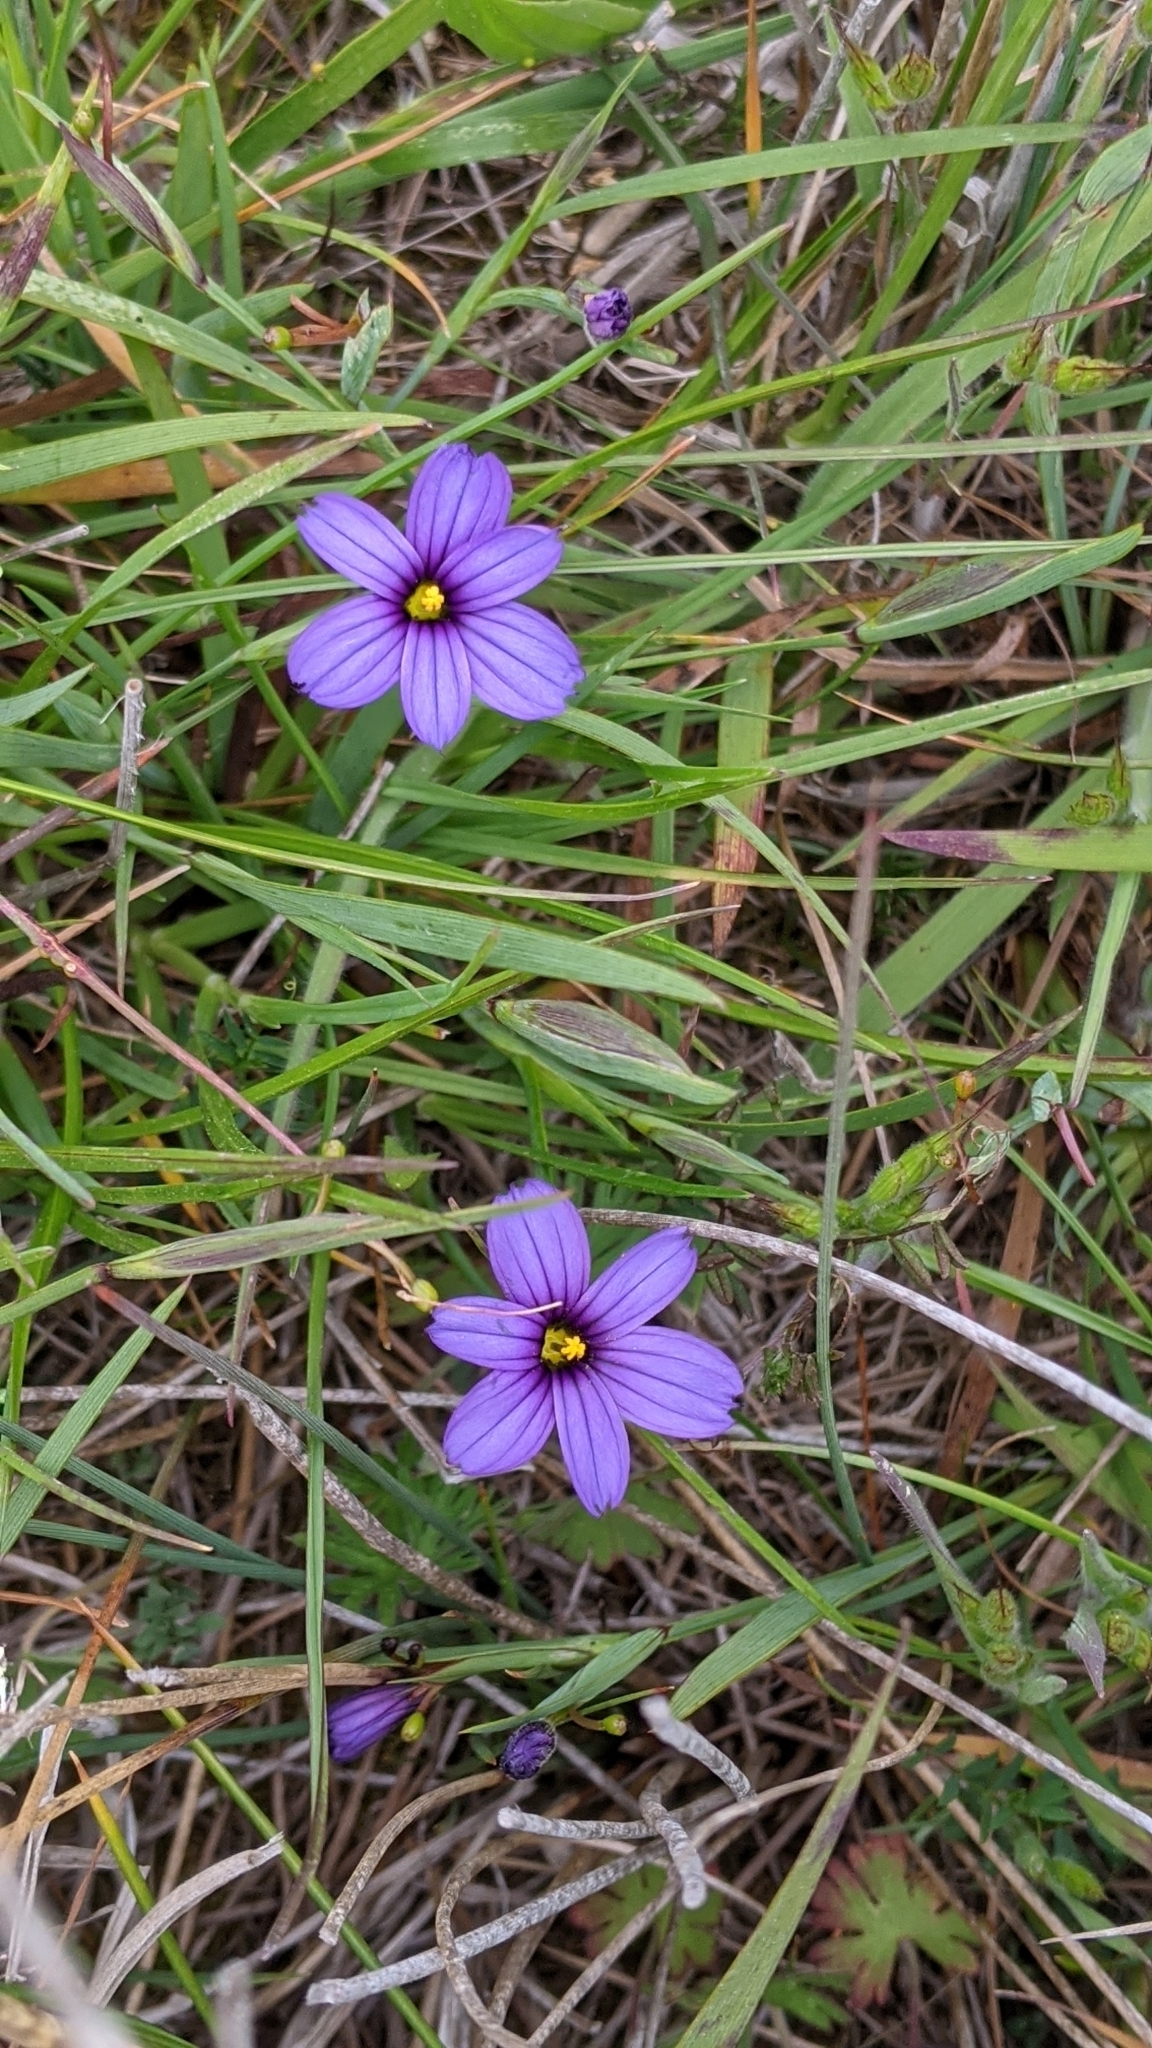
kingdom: Plantae
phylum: Tracheophyta
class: Liliopsida
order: Asparagales
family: Iridaceae
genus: Sisyrinchium
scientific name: Sisyrinchium bellum
